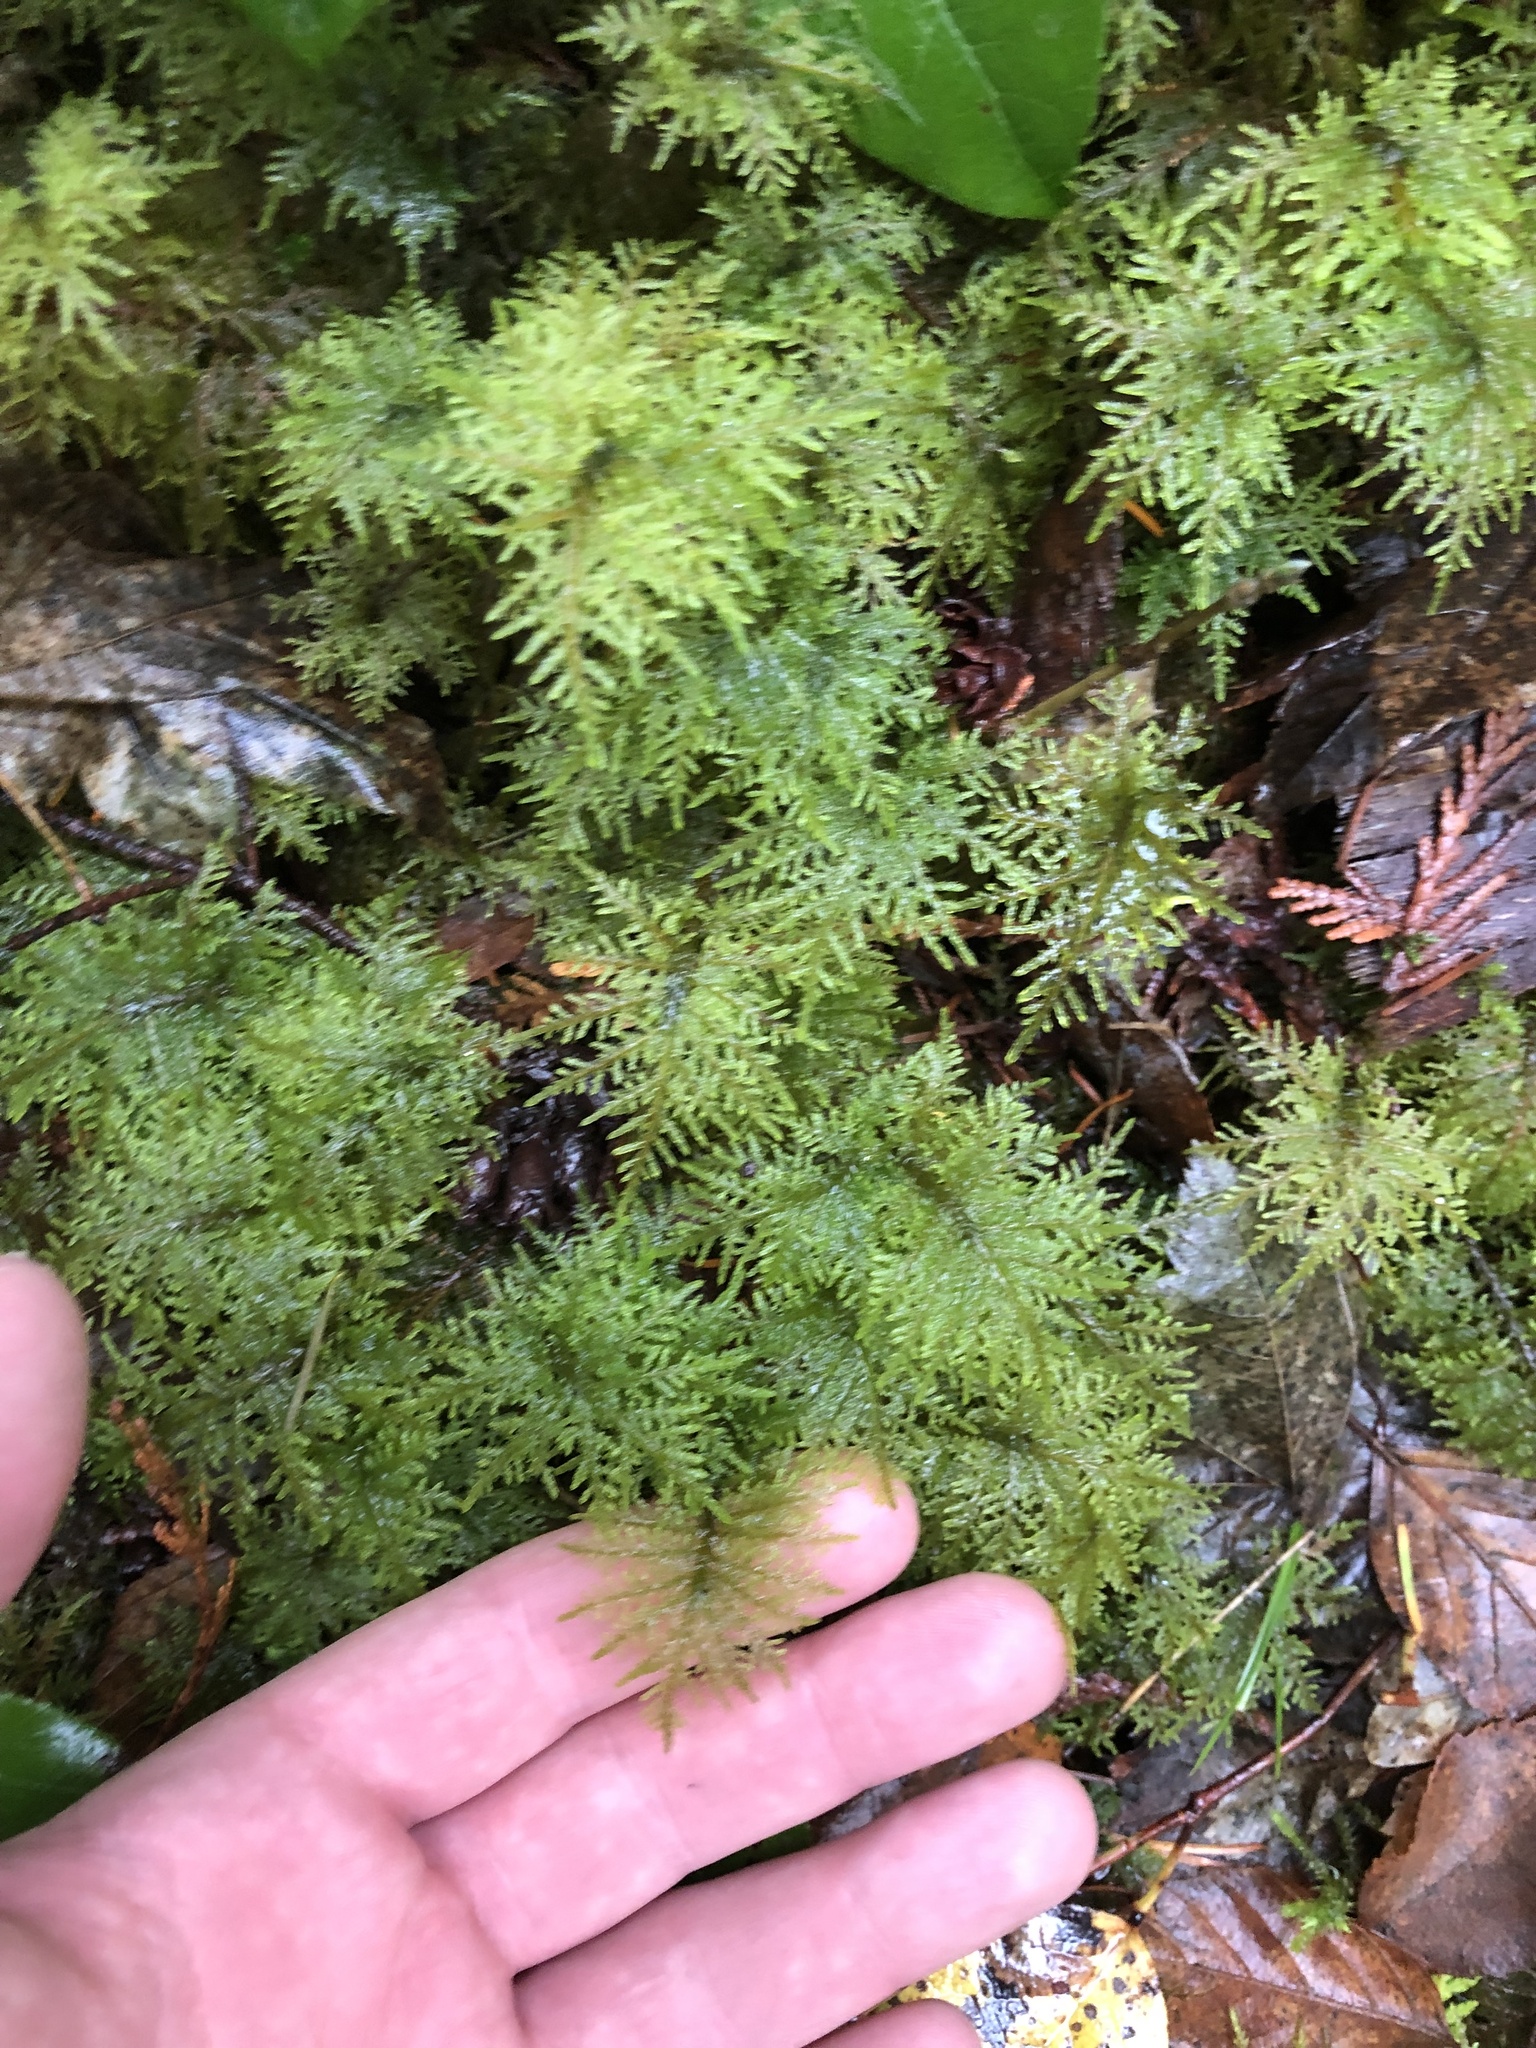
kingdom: Plantae
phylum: Bryophyta
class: Bryopsida
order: Hypnales
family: Hylocomiaceae
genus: Hylocomium
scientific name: Hylocomium splendens
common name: Stairstep moss
